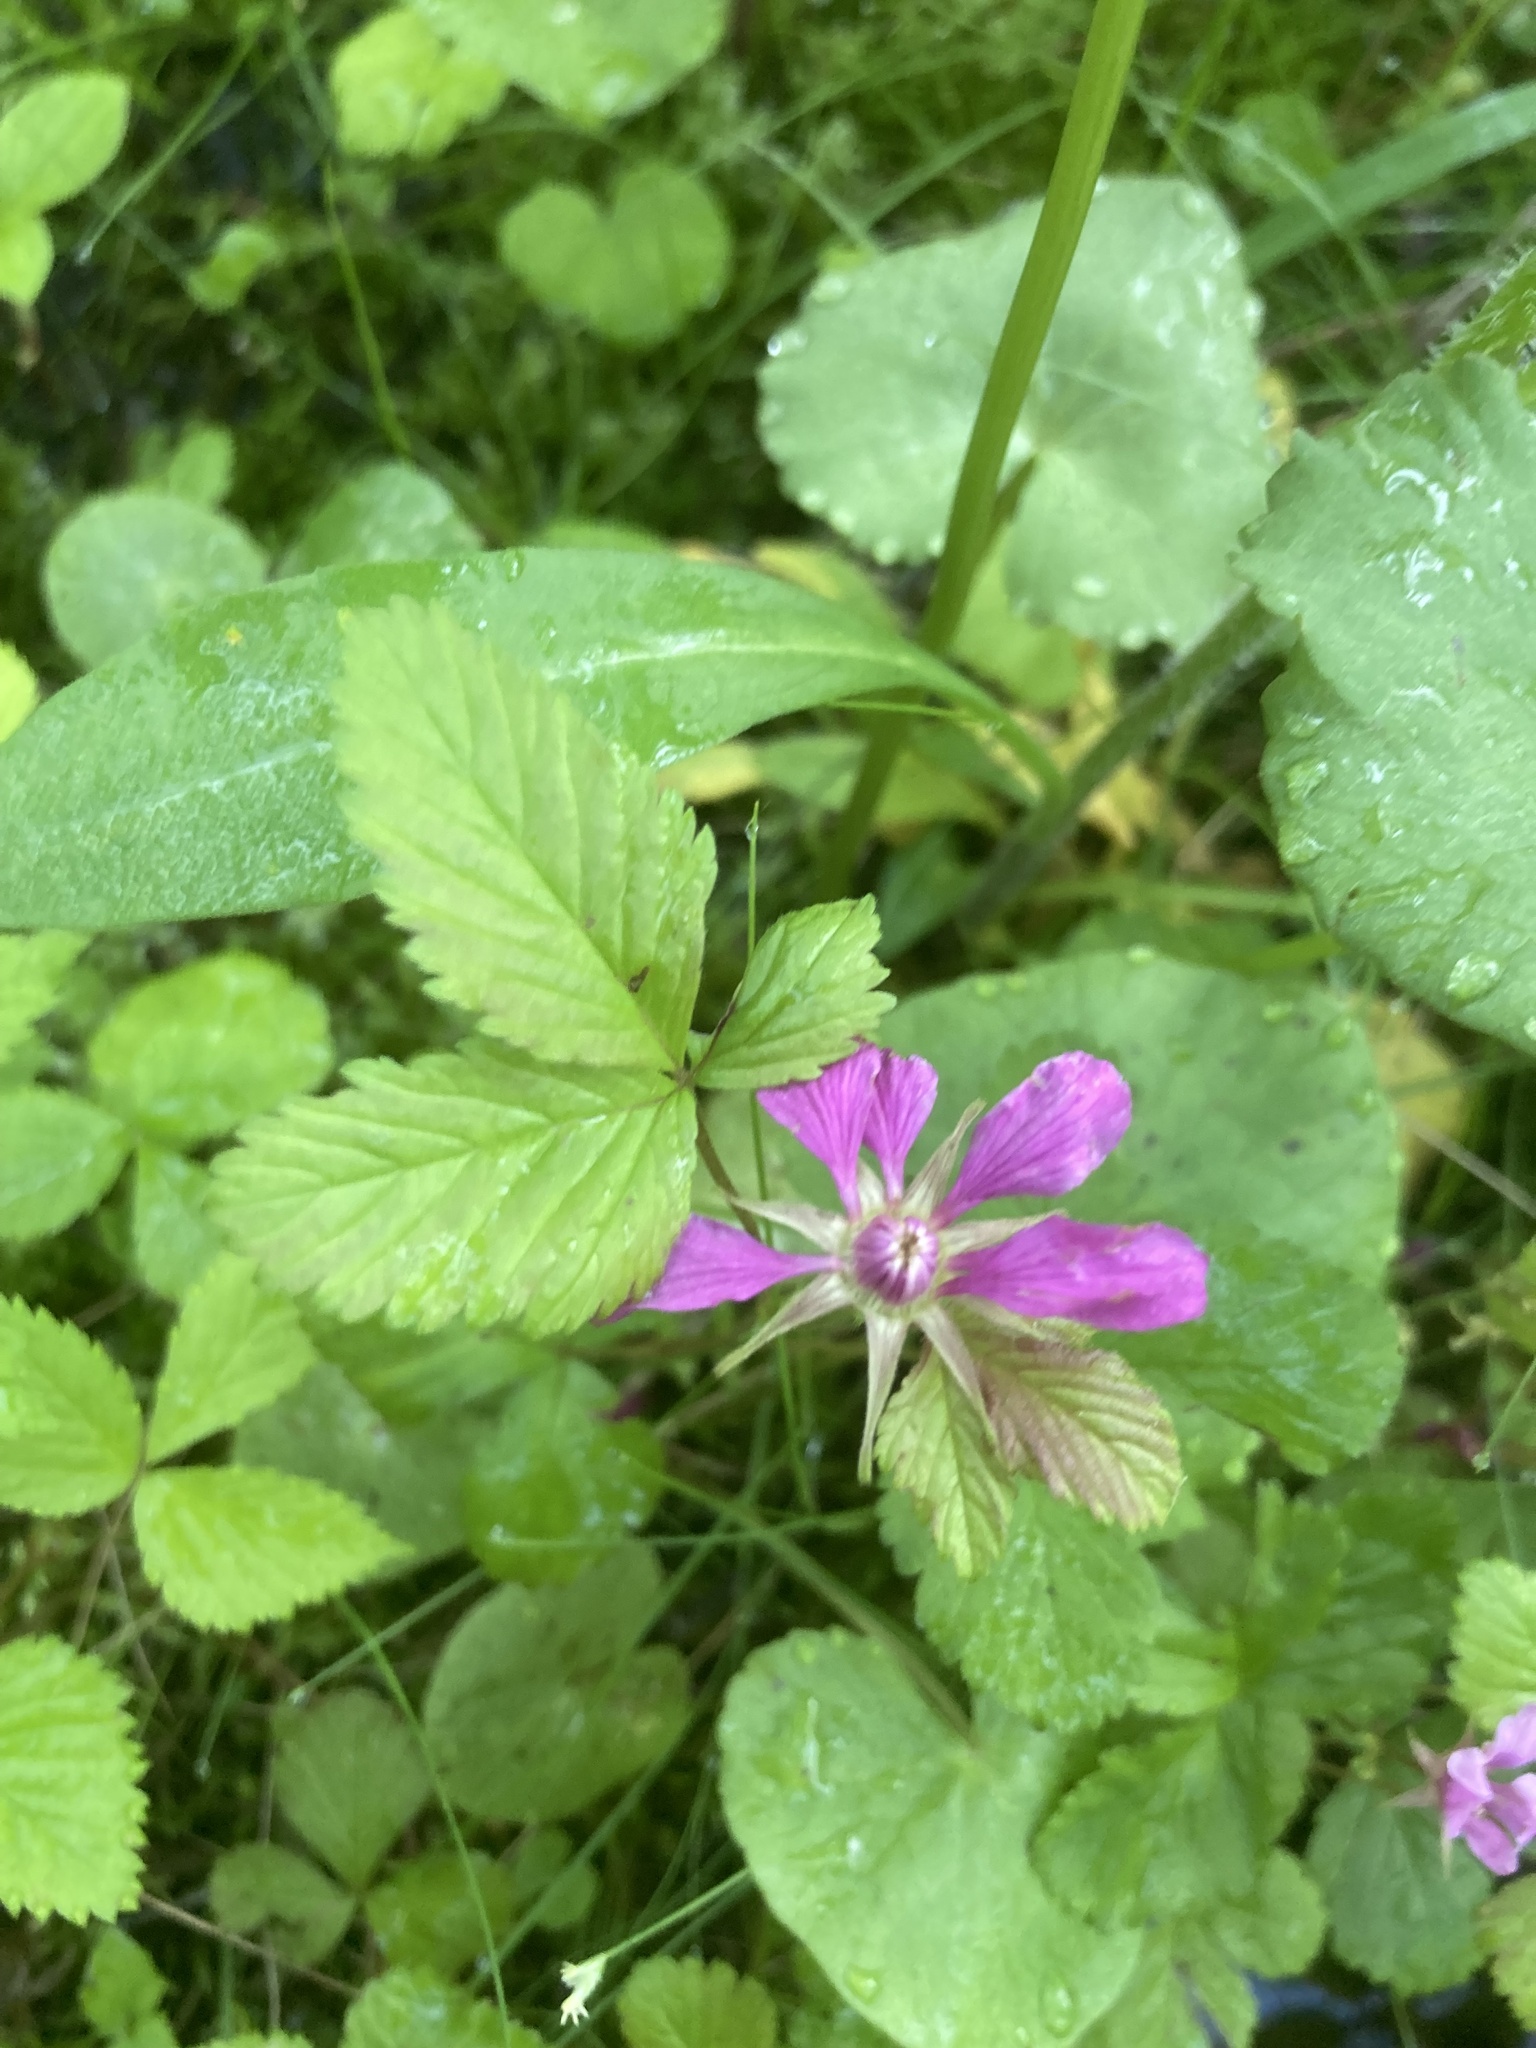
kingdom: Plantae
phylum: Tracheophyta
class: Magnoliopsida
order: Rosales
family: Rosaceae
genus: Rubus
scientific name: Rubus arcticus
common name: Arctic bramble
